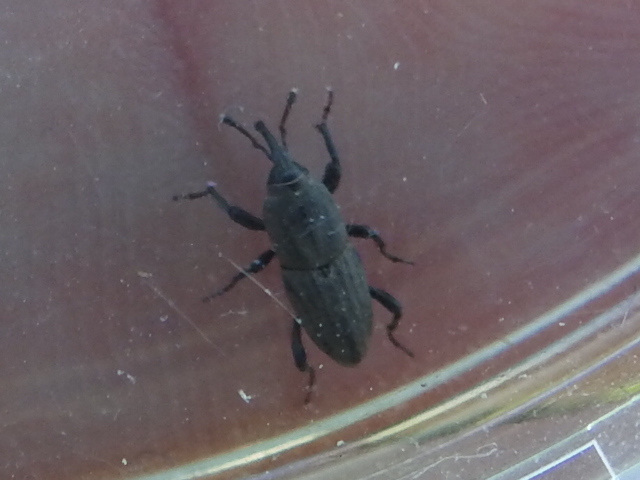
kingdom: Animalia
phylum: Arthropoda
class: Insecta
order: Coleoptera
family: Dryophthoridae
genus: Sphenophorus
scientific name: Sphenophorus interstitialis
